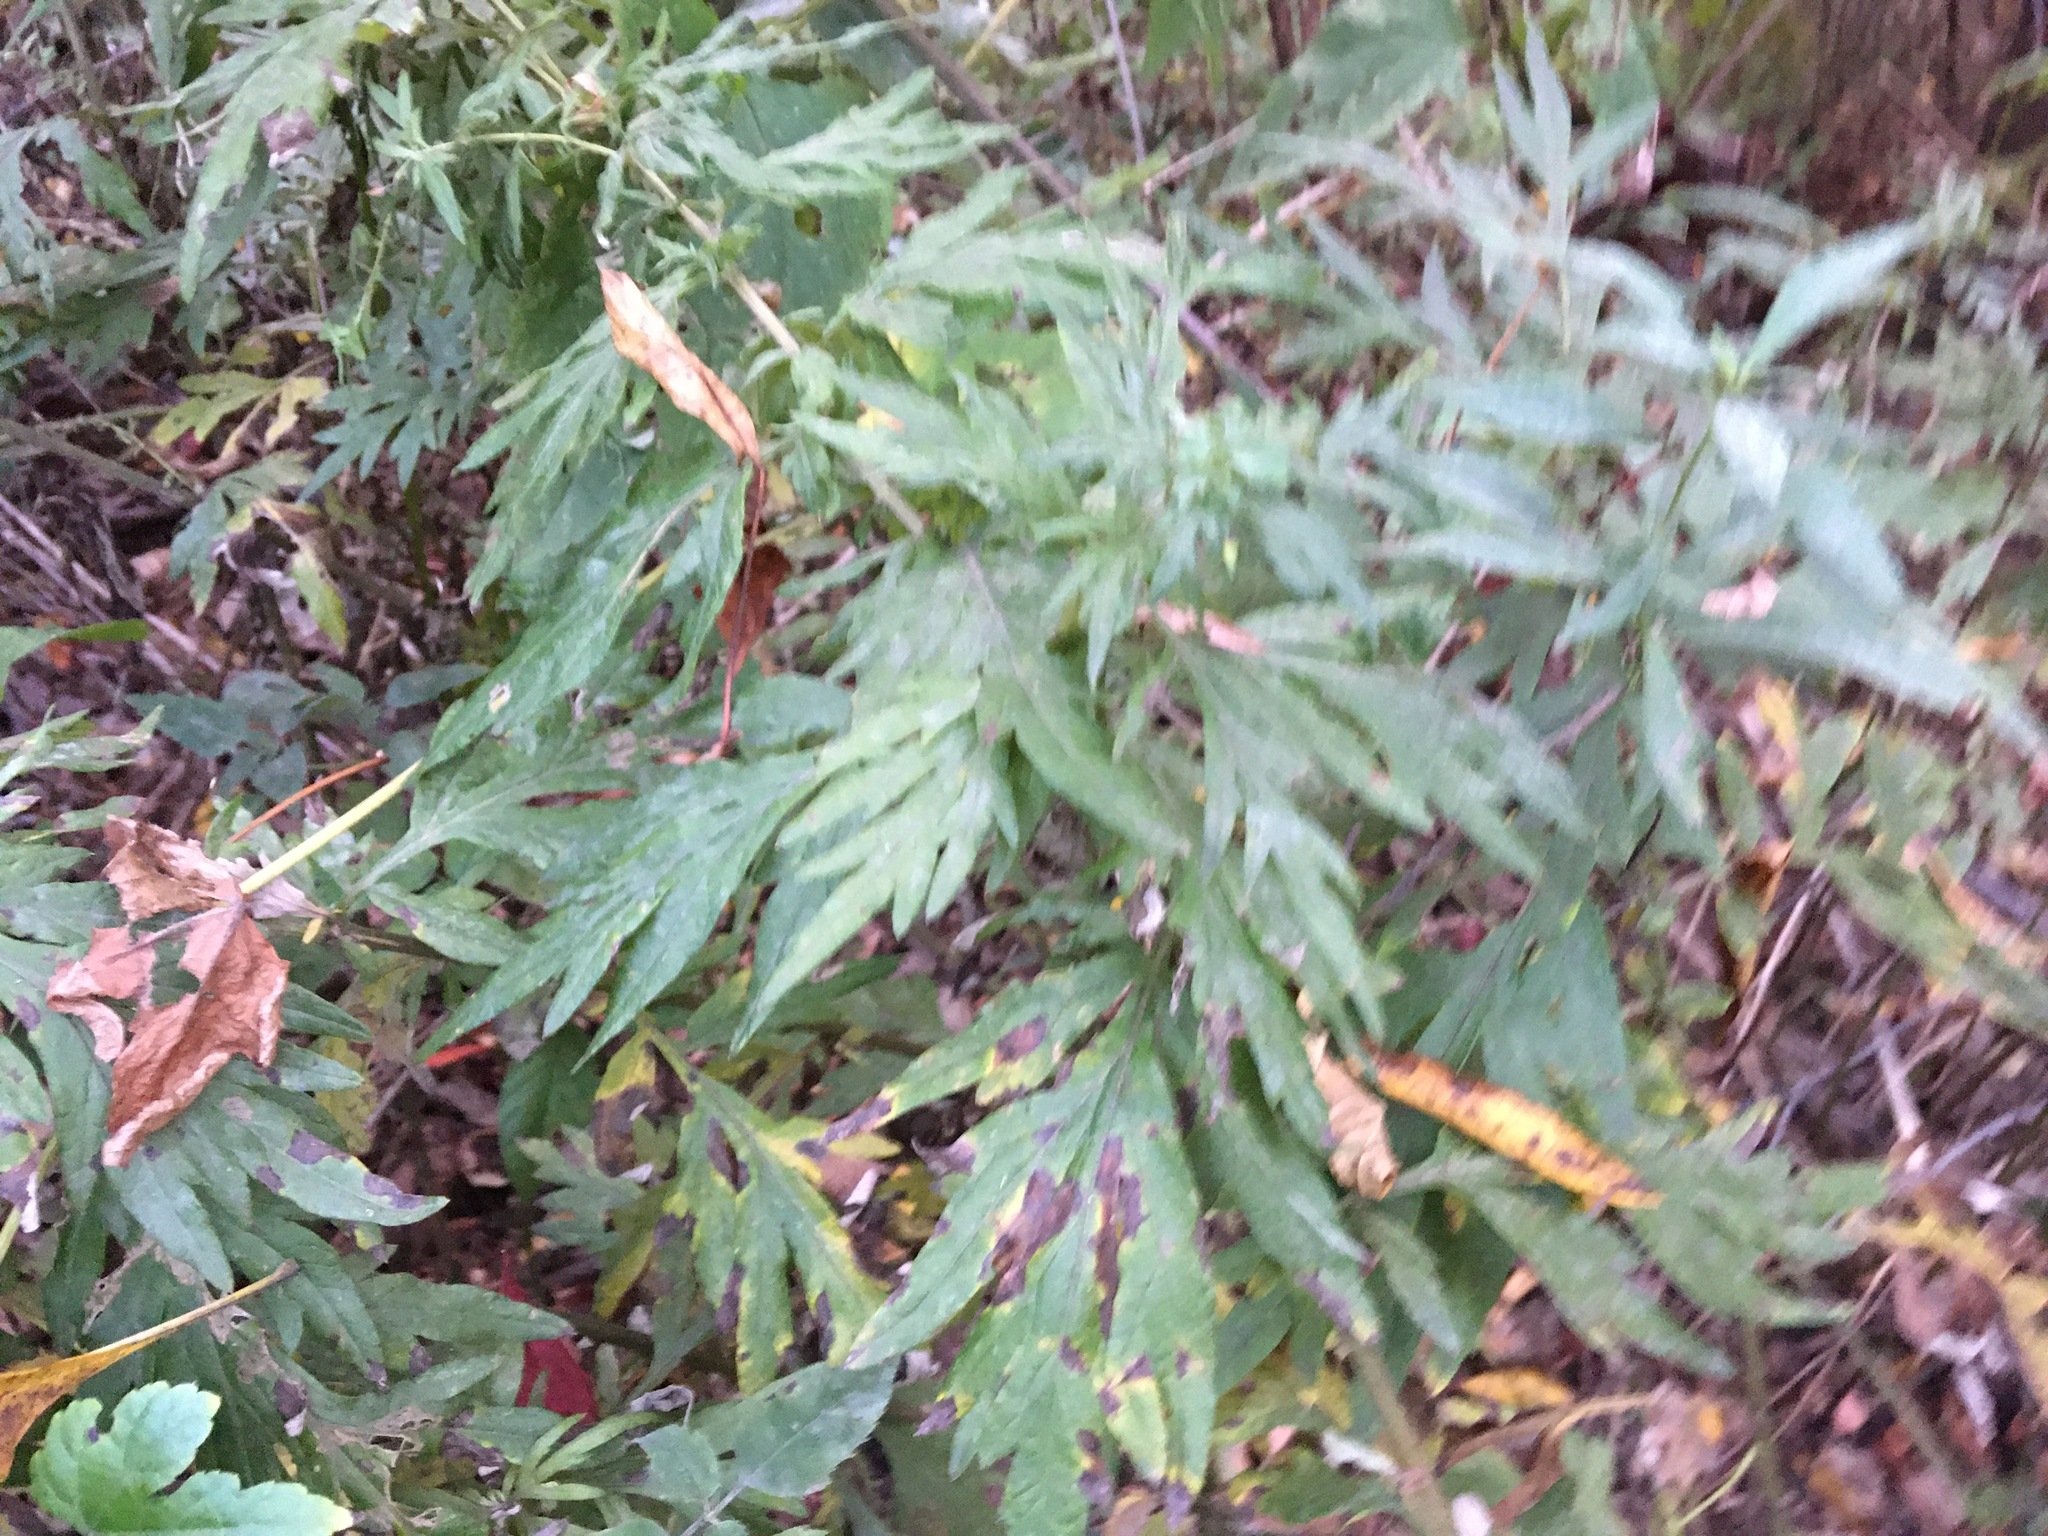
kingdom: Plantae
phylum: Tracheophyta
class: Magnoliopsida
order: Asterales
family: Asteraceae
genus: Artemisia
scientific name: Artemisia vulgaris
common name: Mugwort
